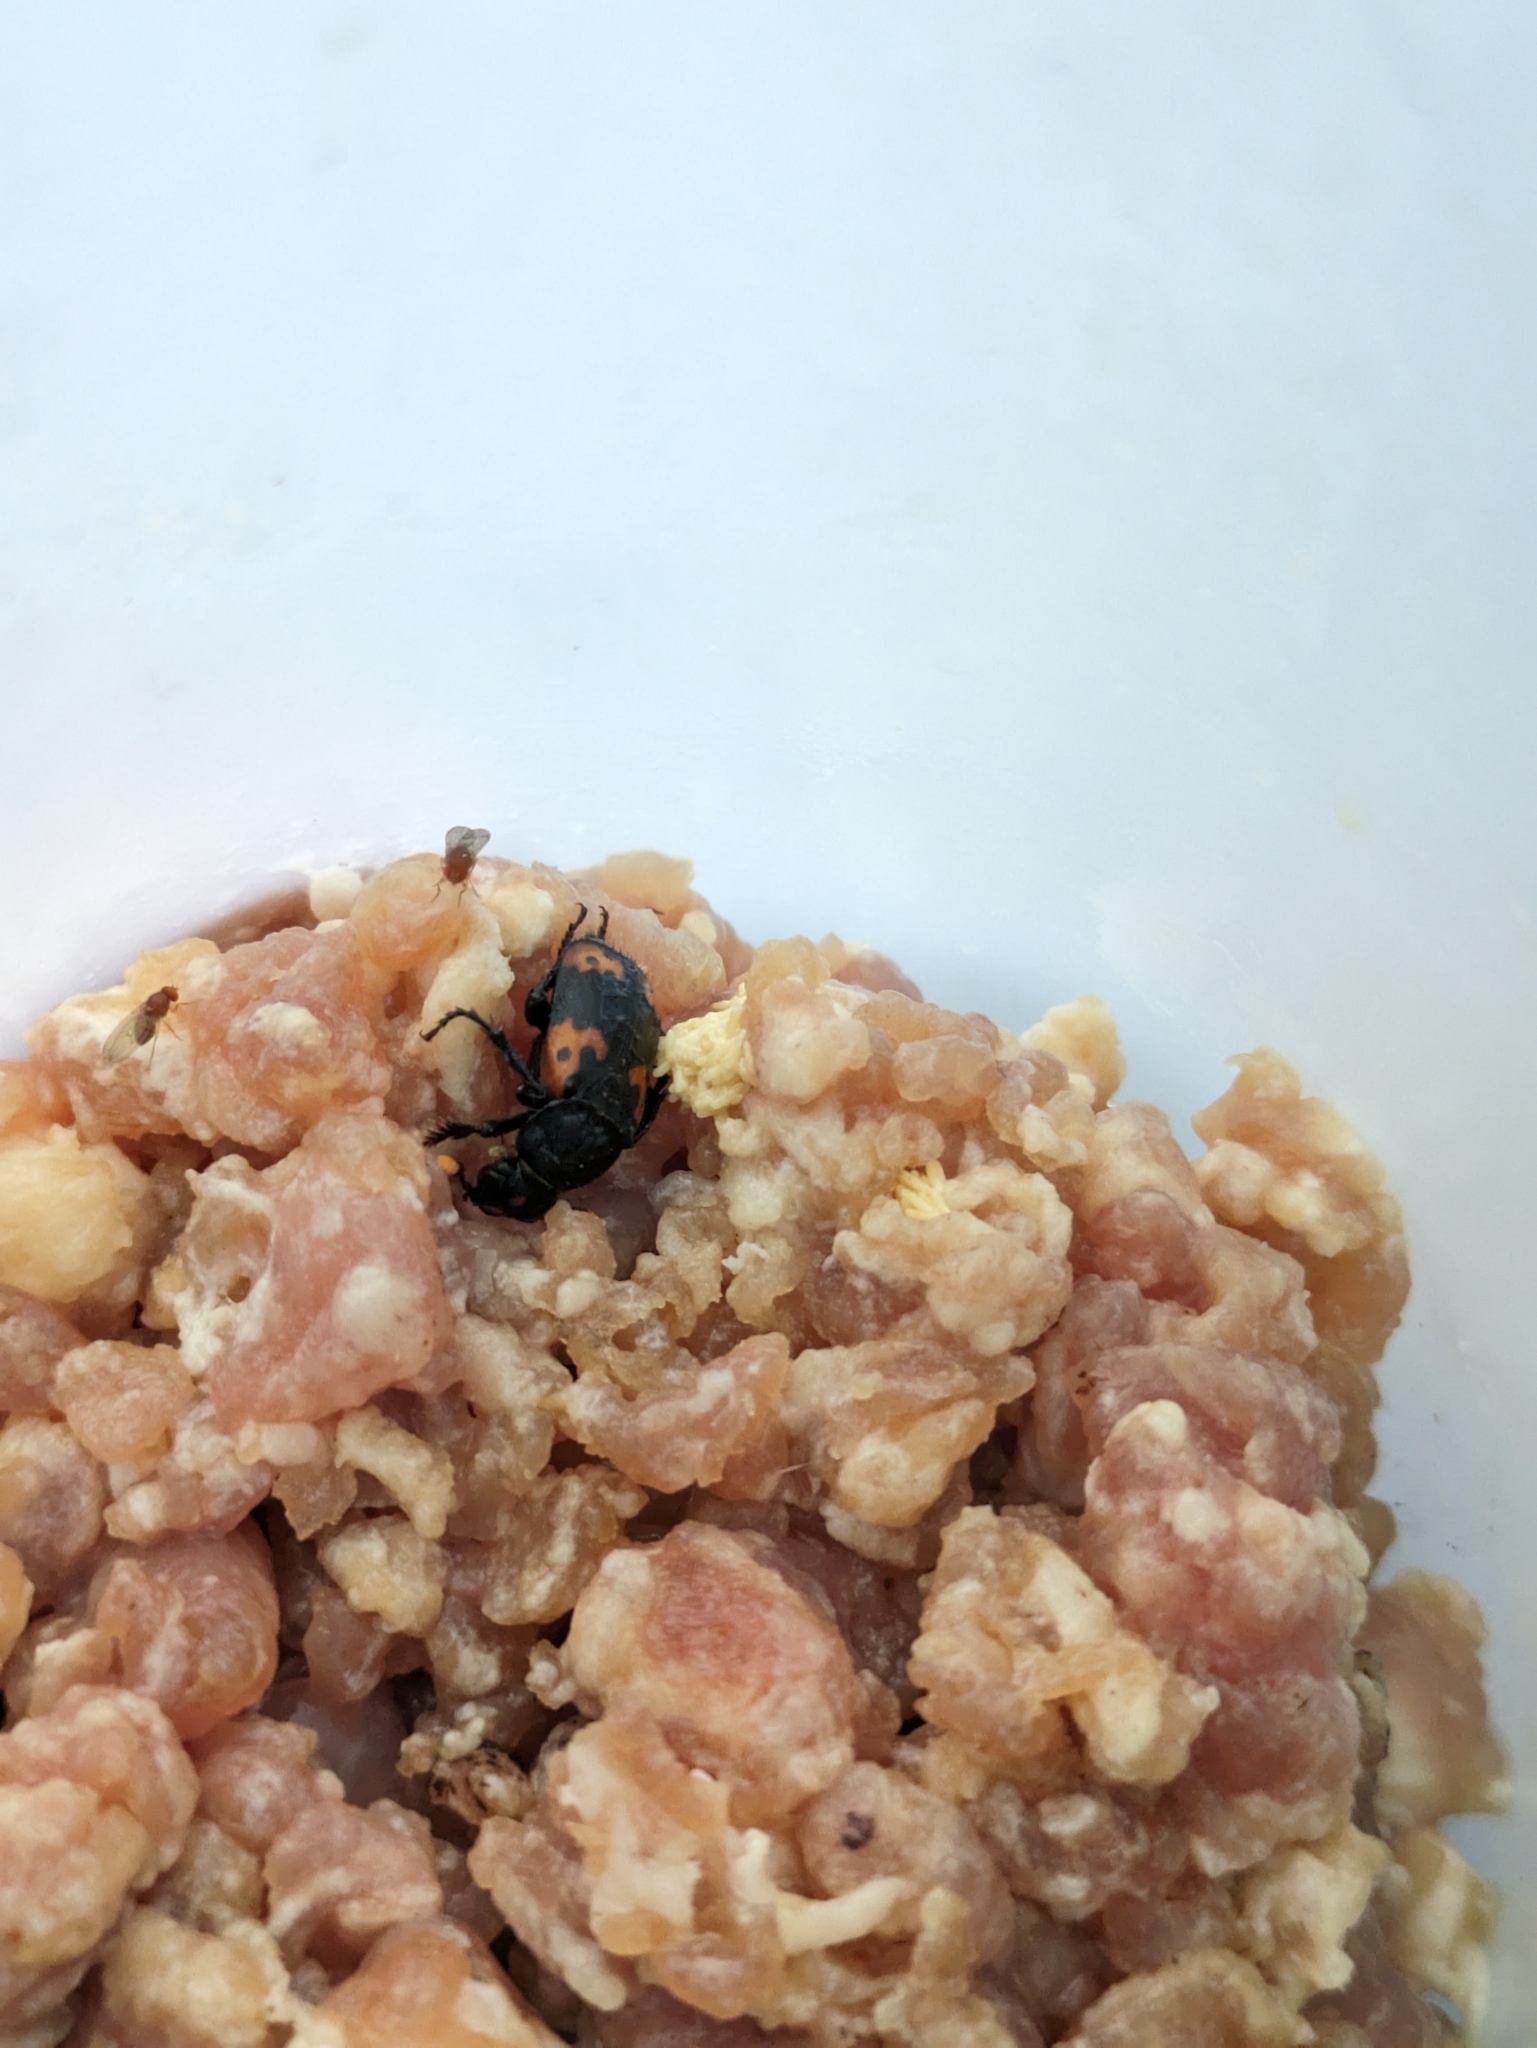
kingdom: Animalia
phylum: Arthropoda
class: Insecta
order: Coleoptera
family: Staphylinidae
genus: Nicrophorus
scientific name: Nicrophorus nepalensis
